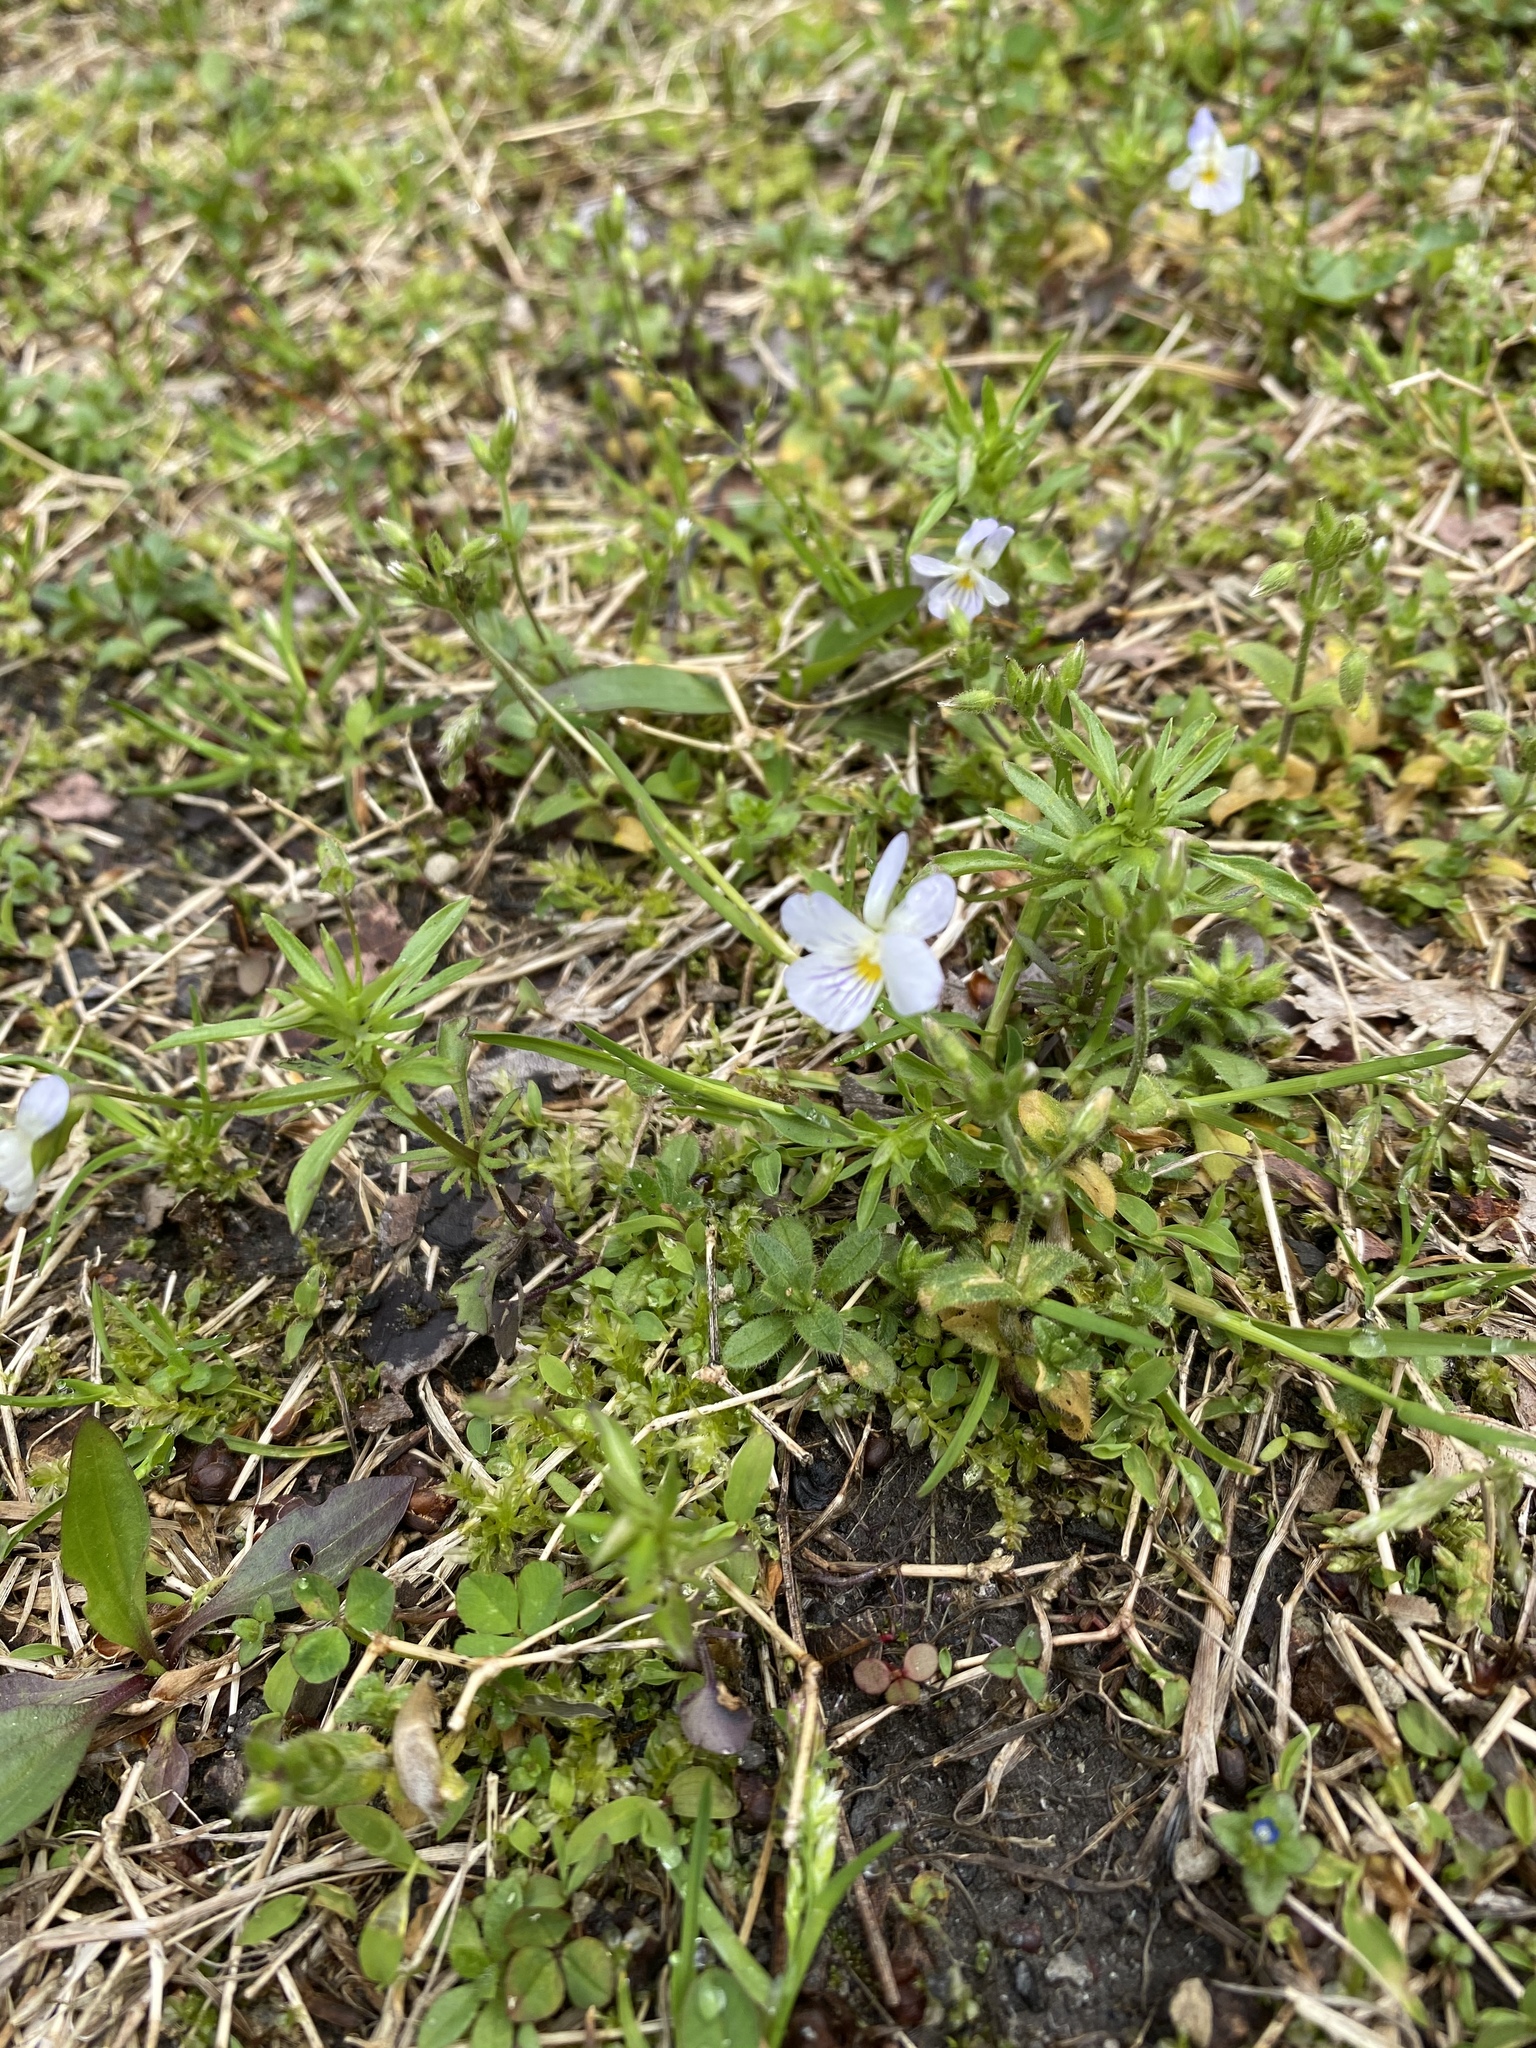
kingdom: Plantae
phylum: Tracheophyta
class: Magnoliopsida
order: Malpighiales
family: Violaceae
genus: Viola
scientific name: Viola rafinesquei
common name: American field pansy
